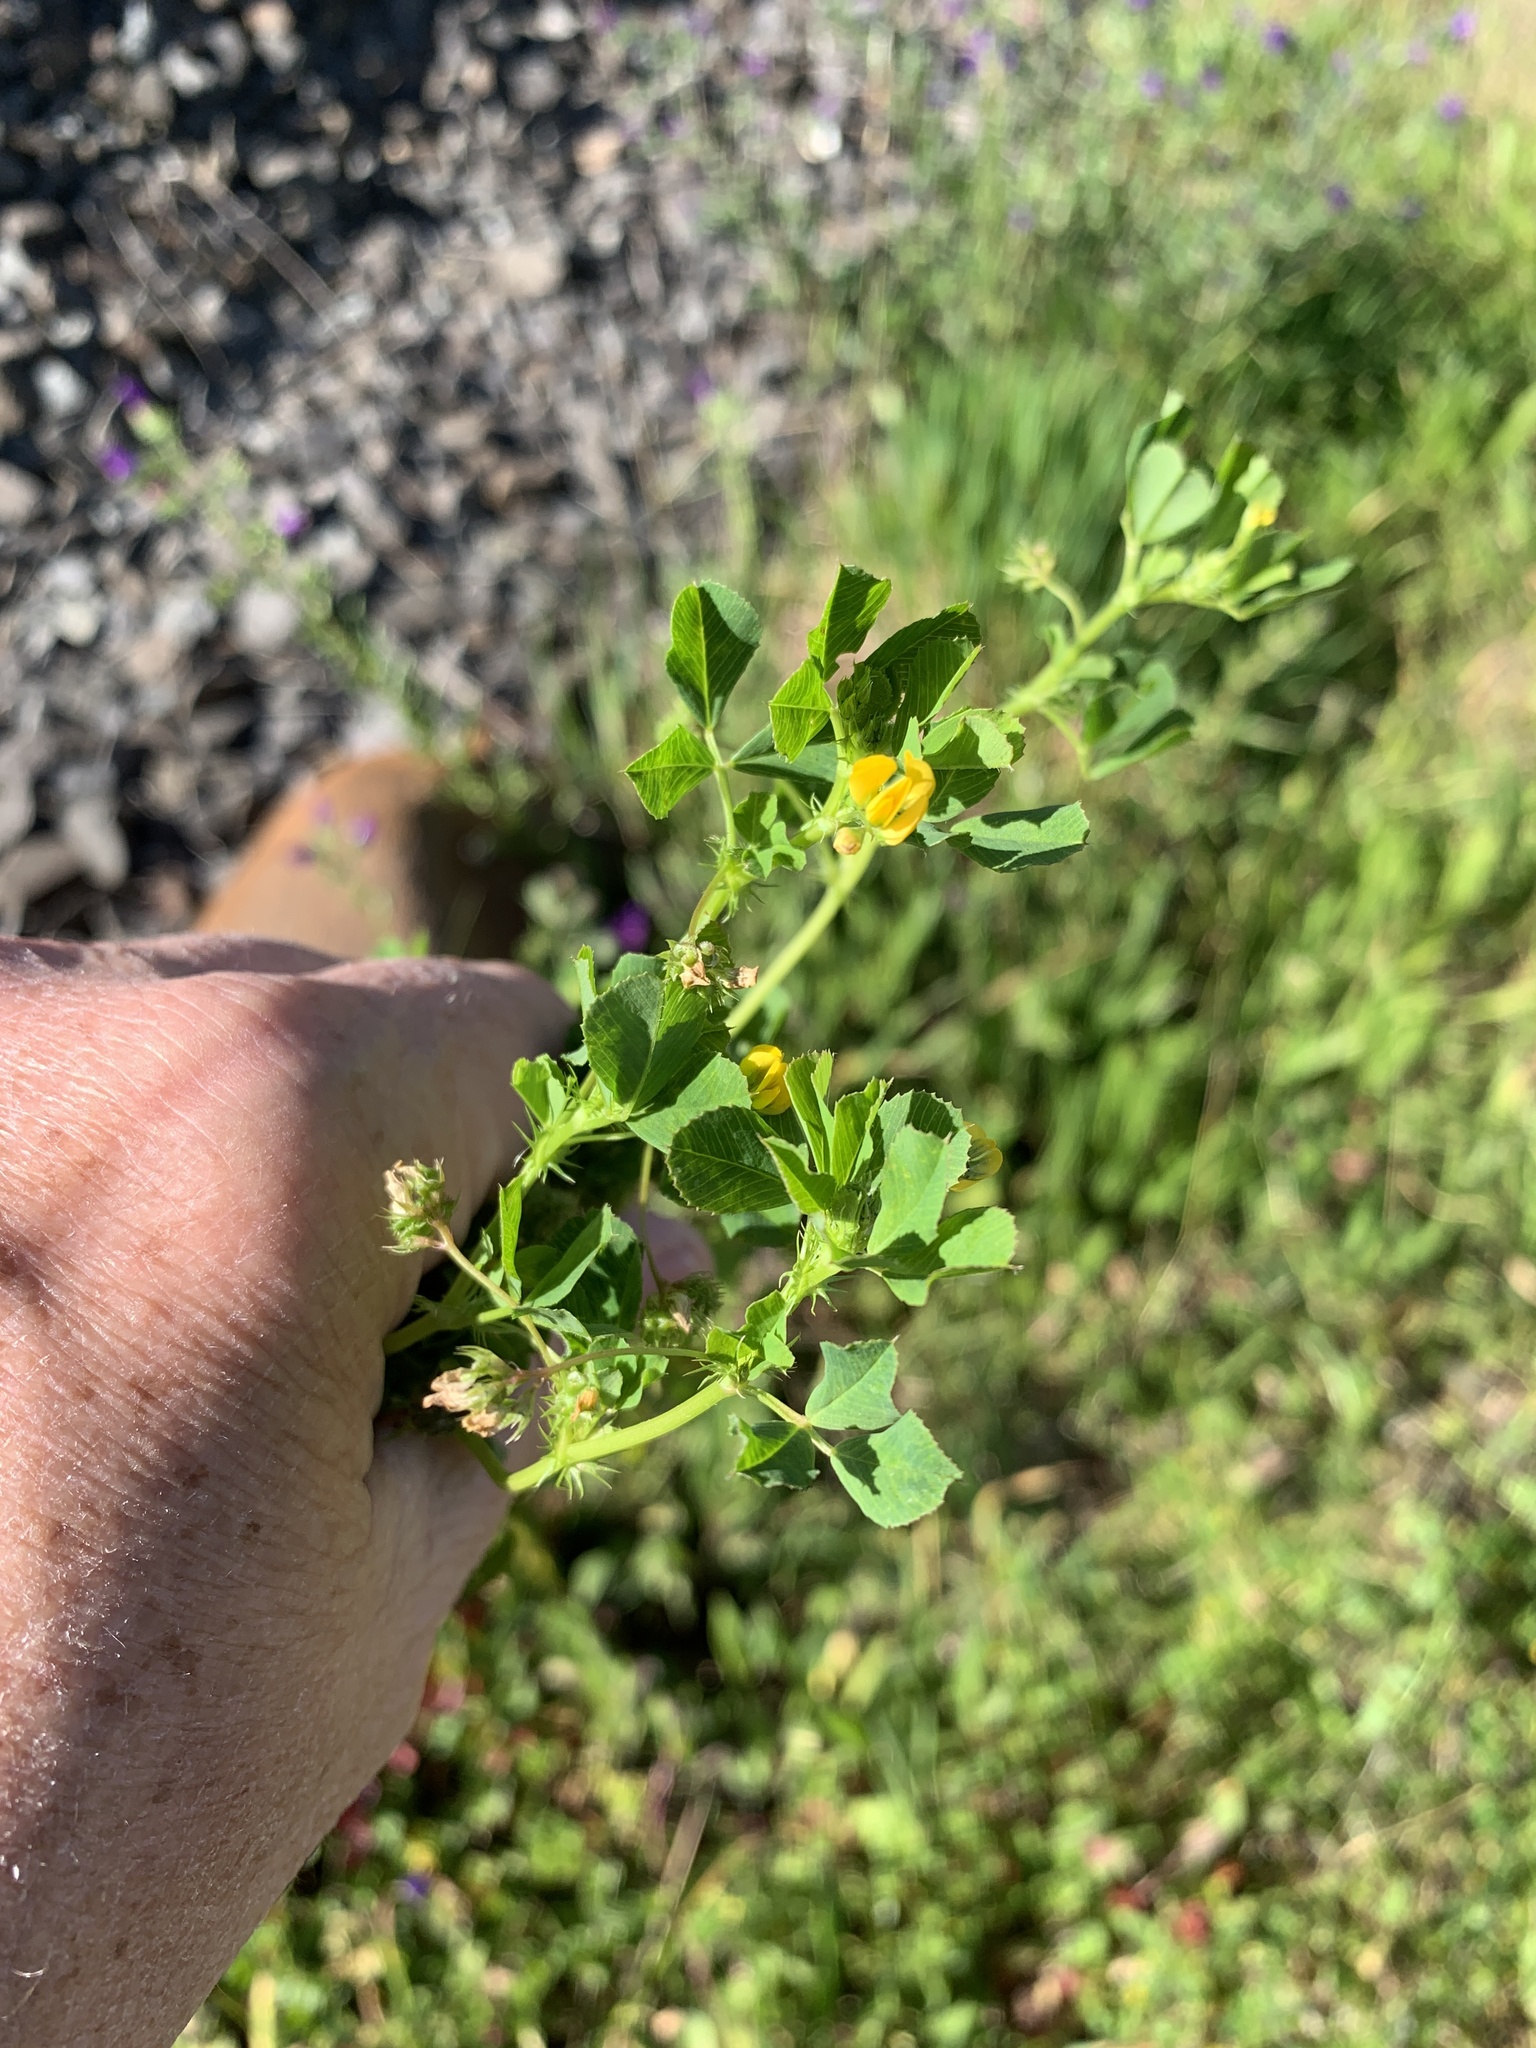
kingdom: Plantae
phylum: Tracheophyta
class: Magnoliopsida
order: Fabales
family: Fabaceae
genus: Medicago
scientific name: Medicago polymorpha
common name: Burclover
